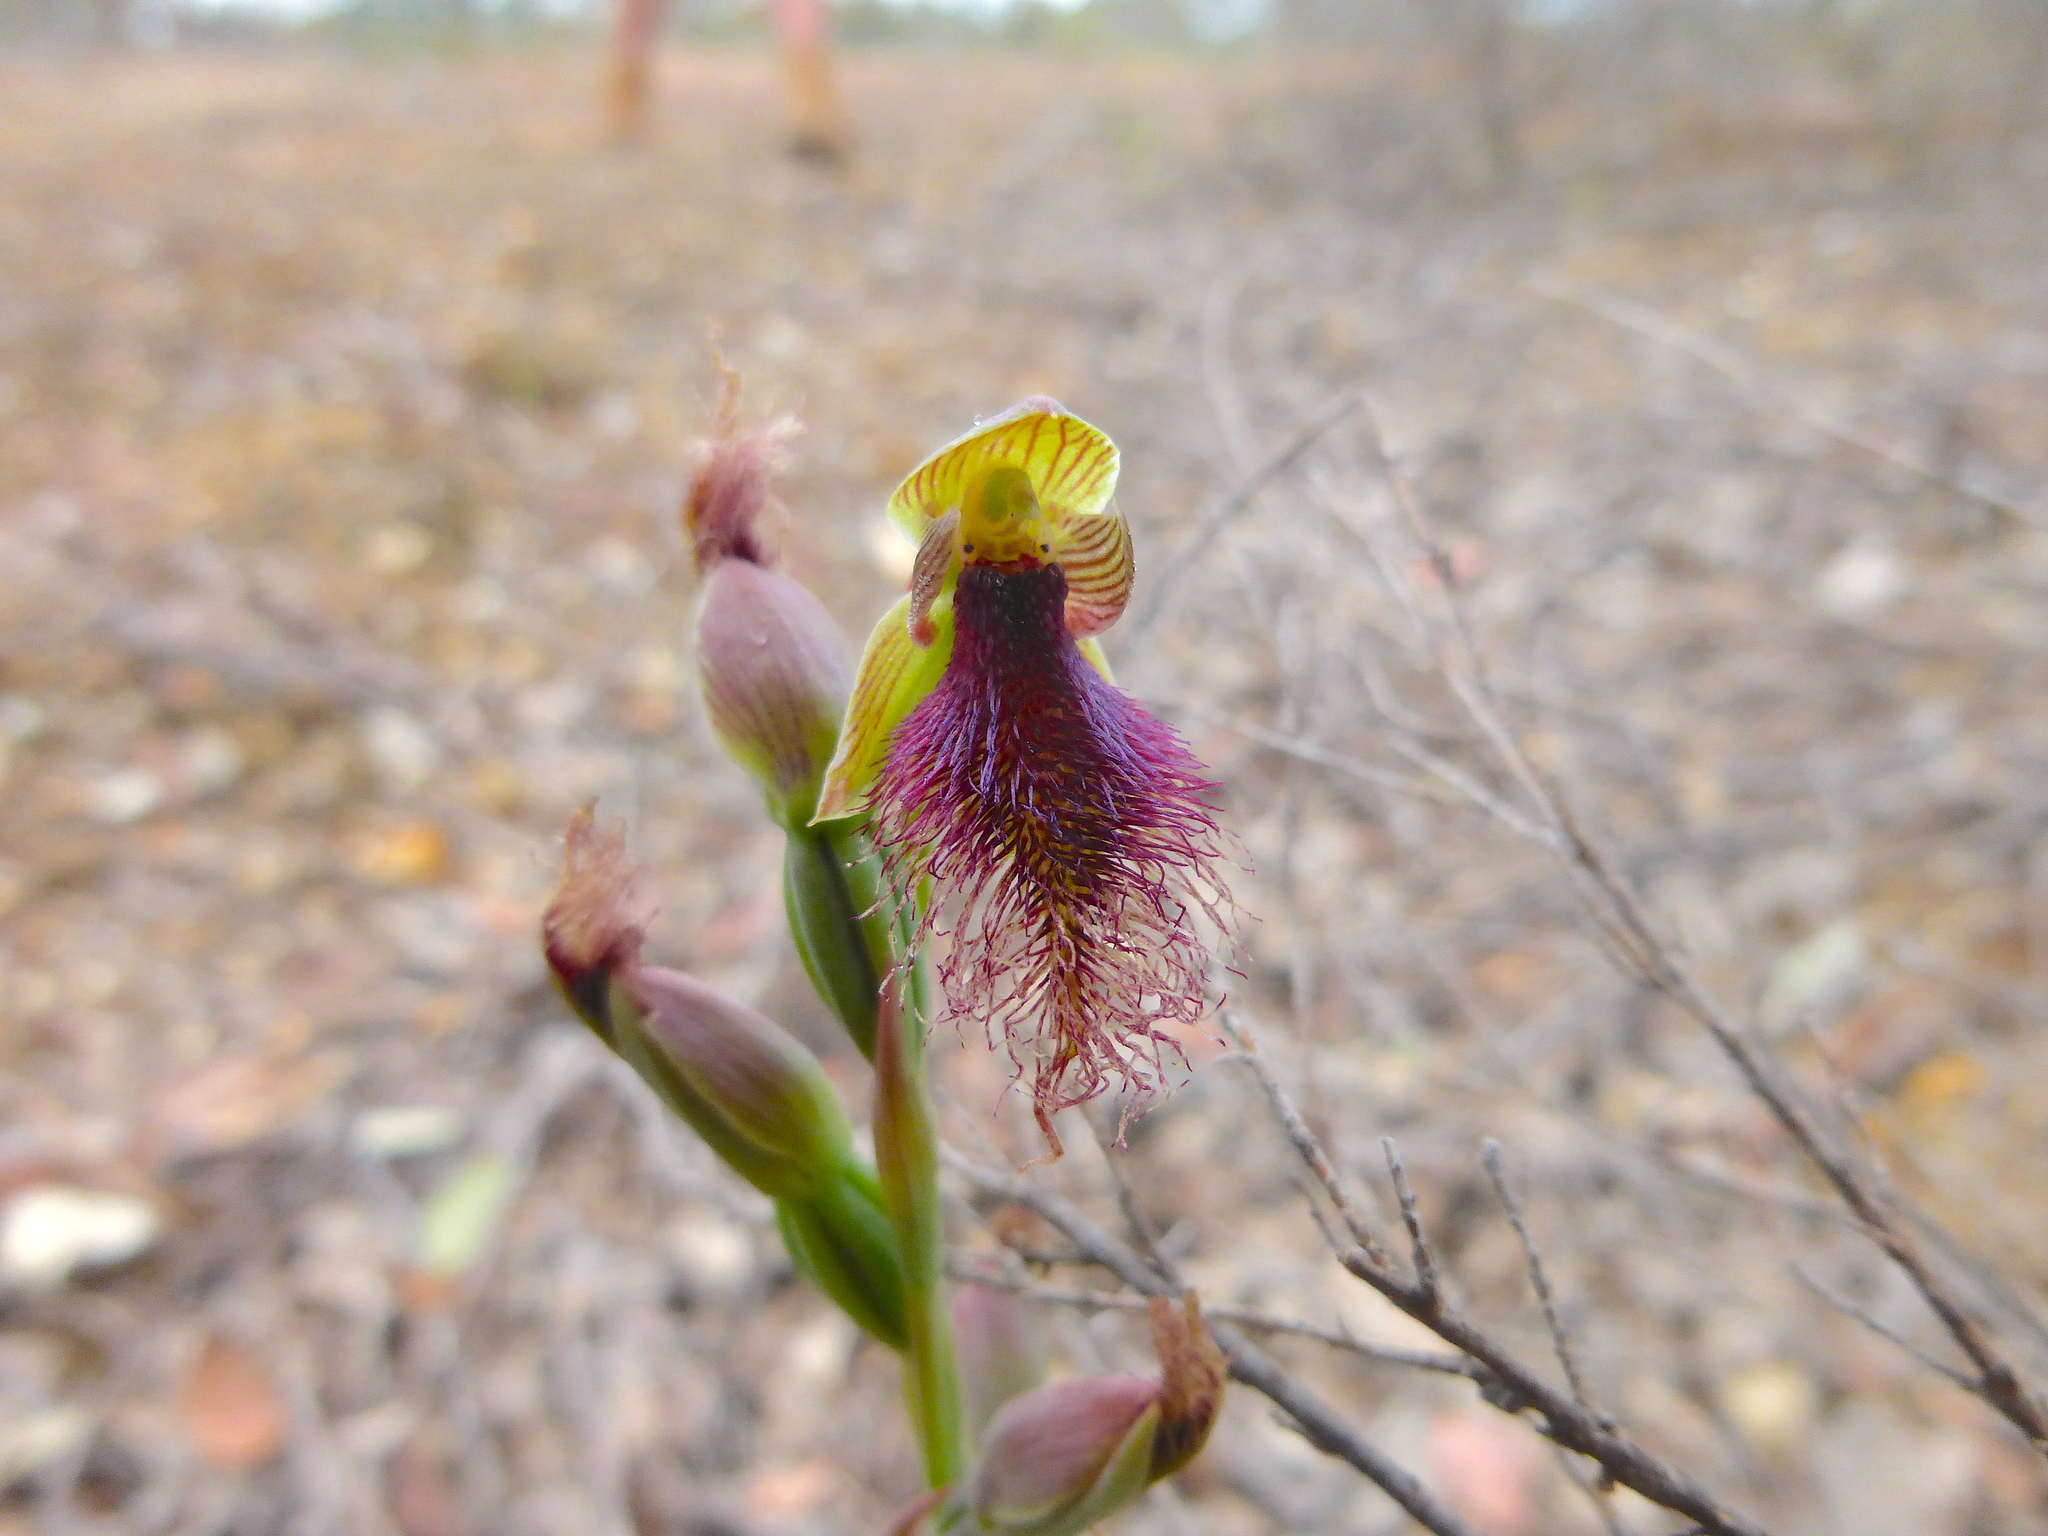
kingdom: Plantae
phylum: Tracheophyta
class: Liliopsida
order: Asparagales
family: Orchidaceae
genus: Calochilus
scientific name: Calochilus robertsonii
